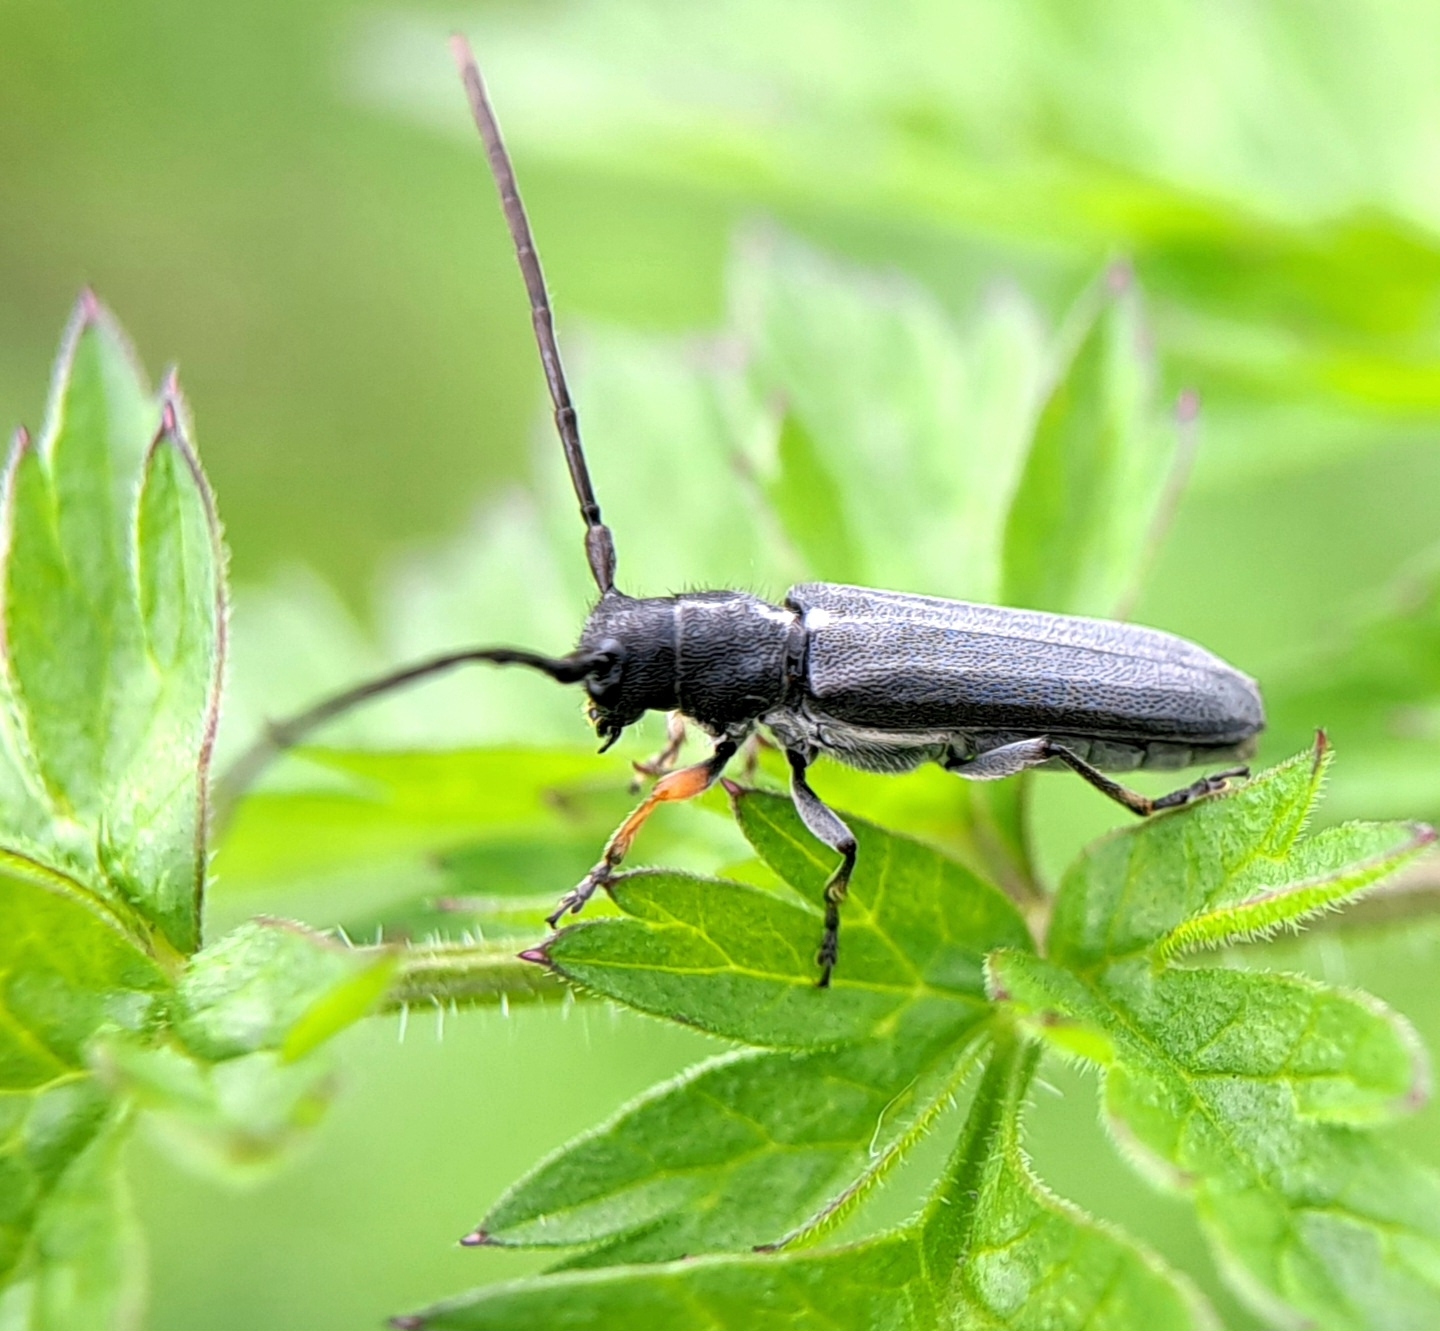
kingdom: Animalia
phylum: Arthropoda
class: Insecta
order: Coleoptera
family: Cerambycidae
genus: Phytoecia
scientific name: Phytoecia cylindrica
